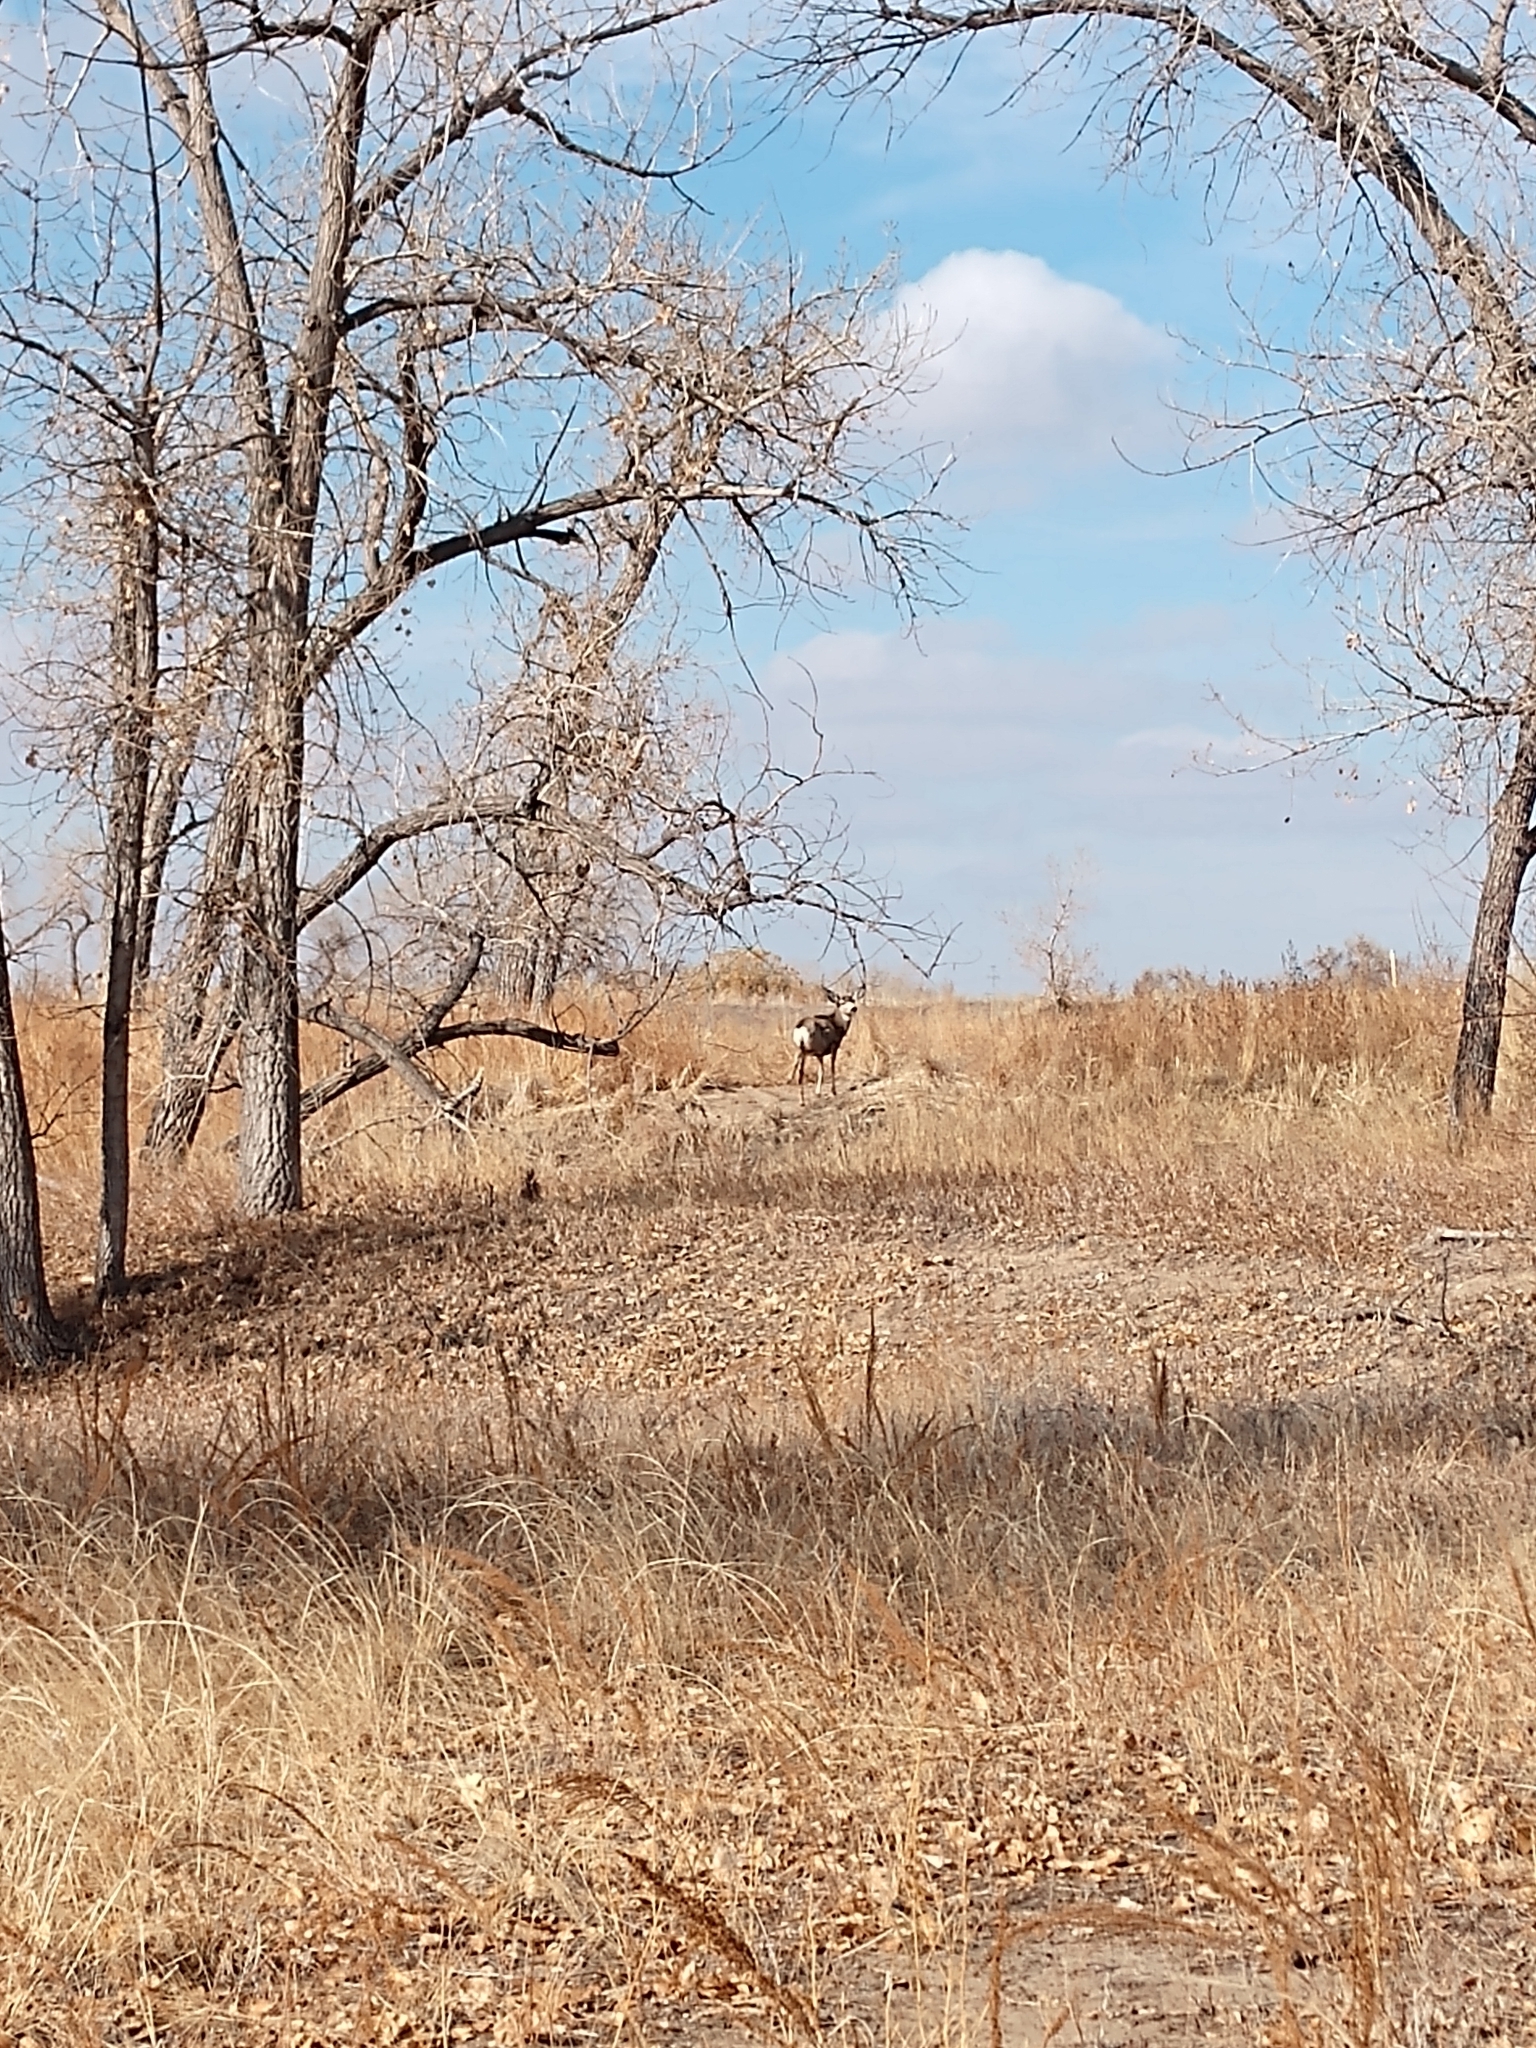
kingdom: Animalia
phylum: Chordata
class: Mammalia
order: Artiodactyla
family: Cervidae
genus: Odocoileus
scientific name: Odocoileus hemionus
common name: Mule deer
